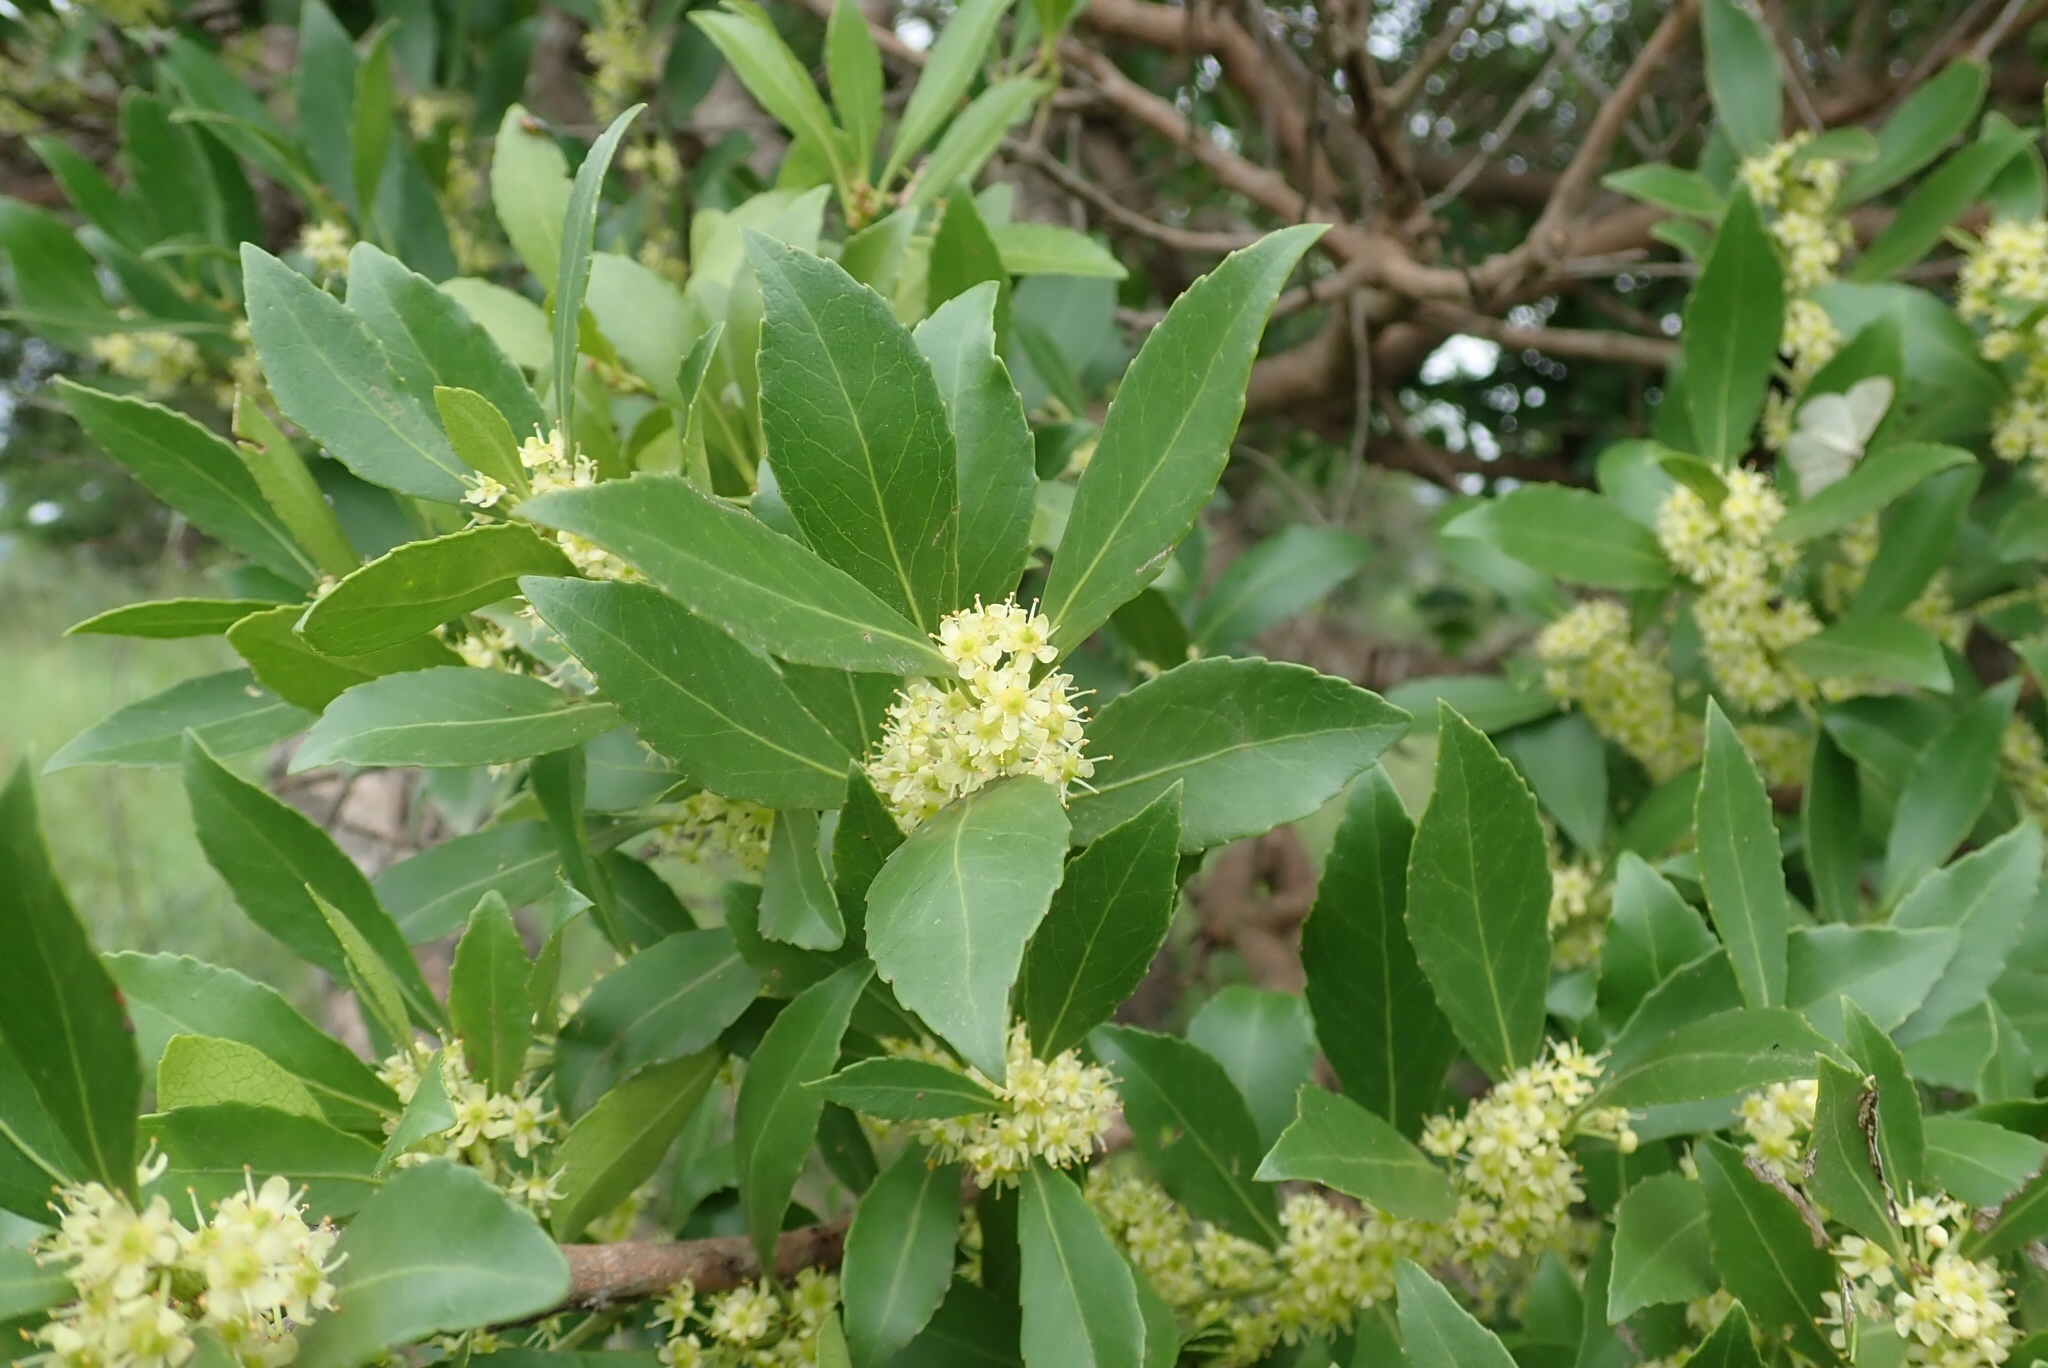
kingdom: Plantae
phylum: Tracheophyta
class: Magnoliopsida
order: Celastrales
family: Celastraceae
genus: Gymnosporia
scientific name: Gymnosporia undata
